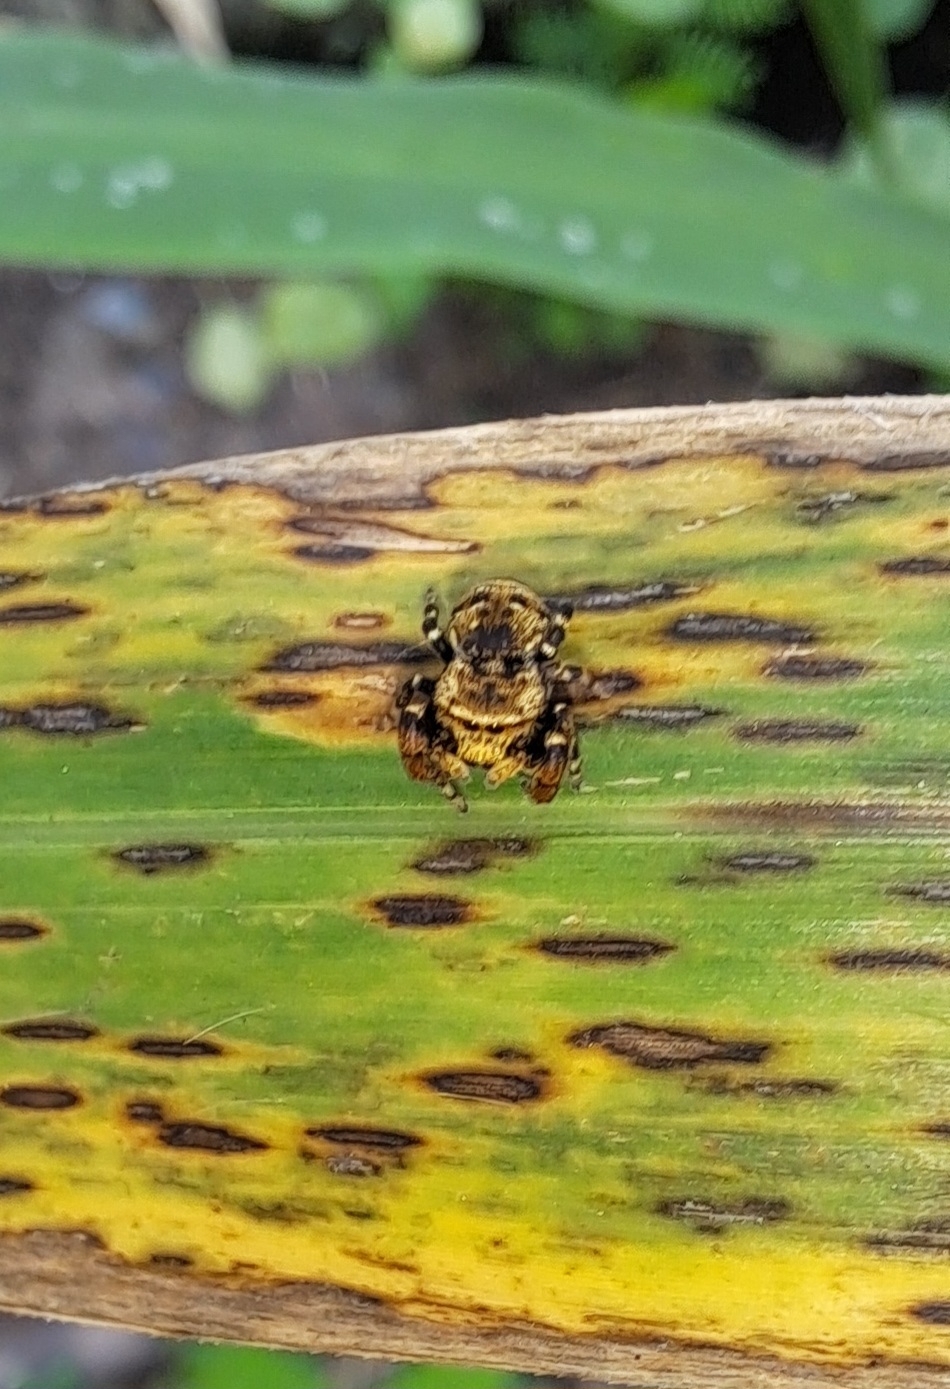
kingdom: Animalia
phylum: Arthropoda
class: Arachnida
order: Araneae
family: Salticidae
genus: Rhene
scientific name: Rhene flavigera
